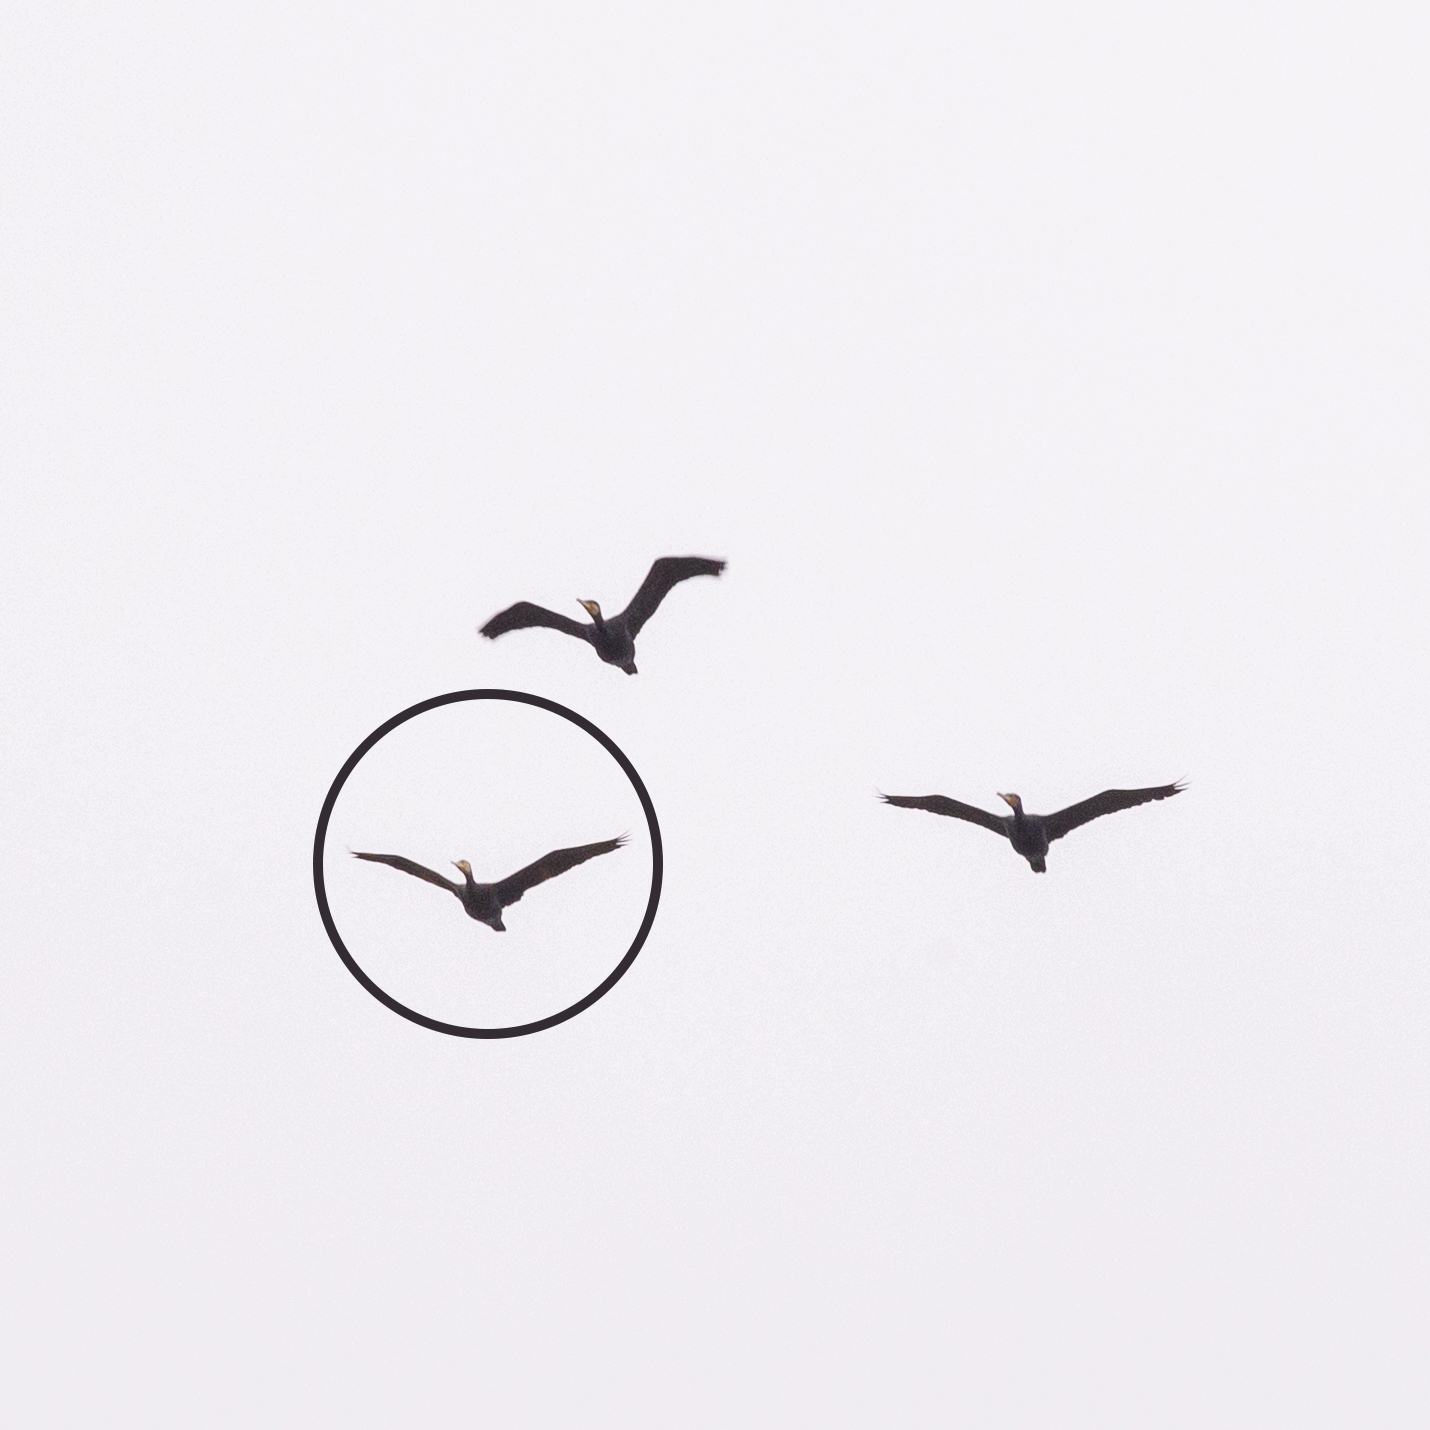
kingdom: Animalia
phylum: Chordata
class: Aves
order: Suliformes
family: Phalacrocoracidae
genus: Phalacrocorax
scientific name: Phalacrocorax carbo
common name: Great cormorant
